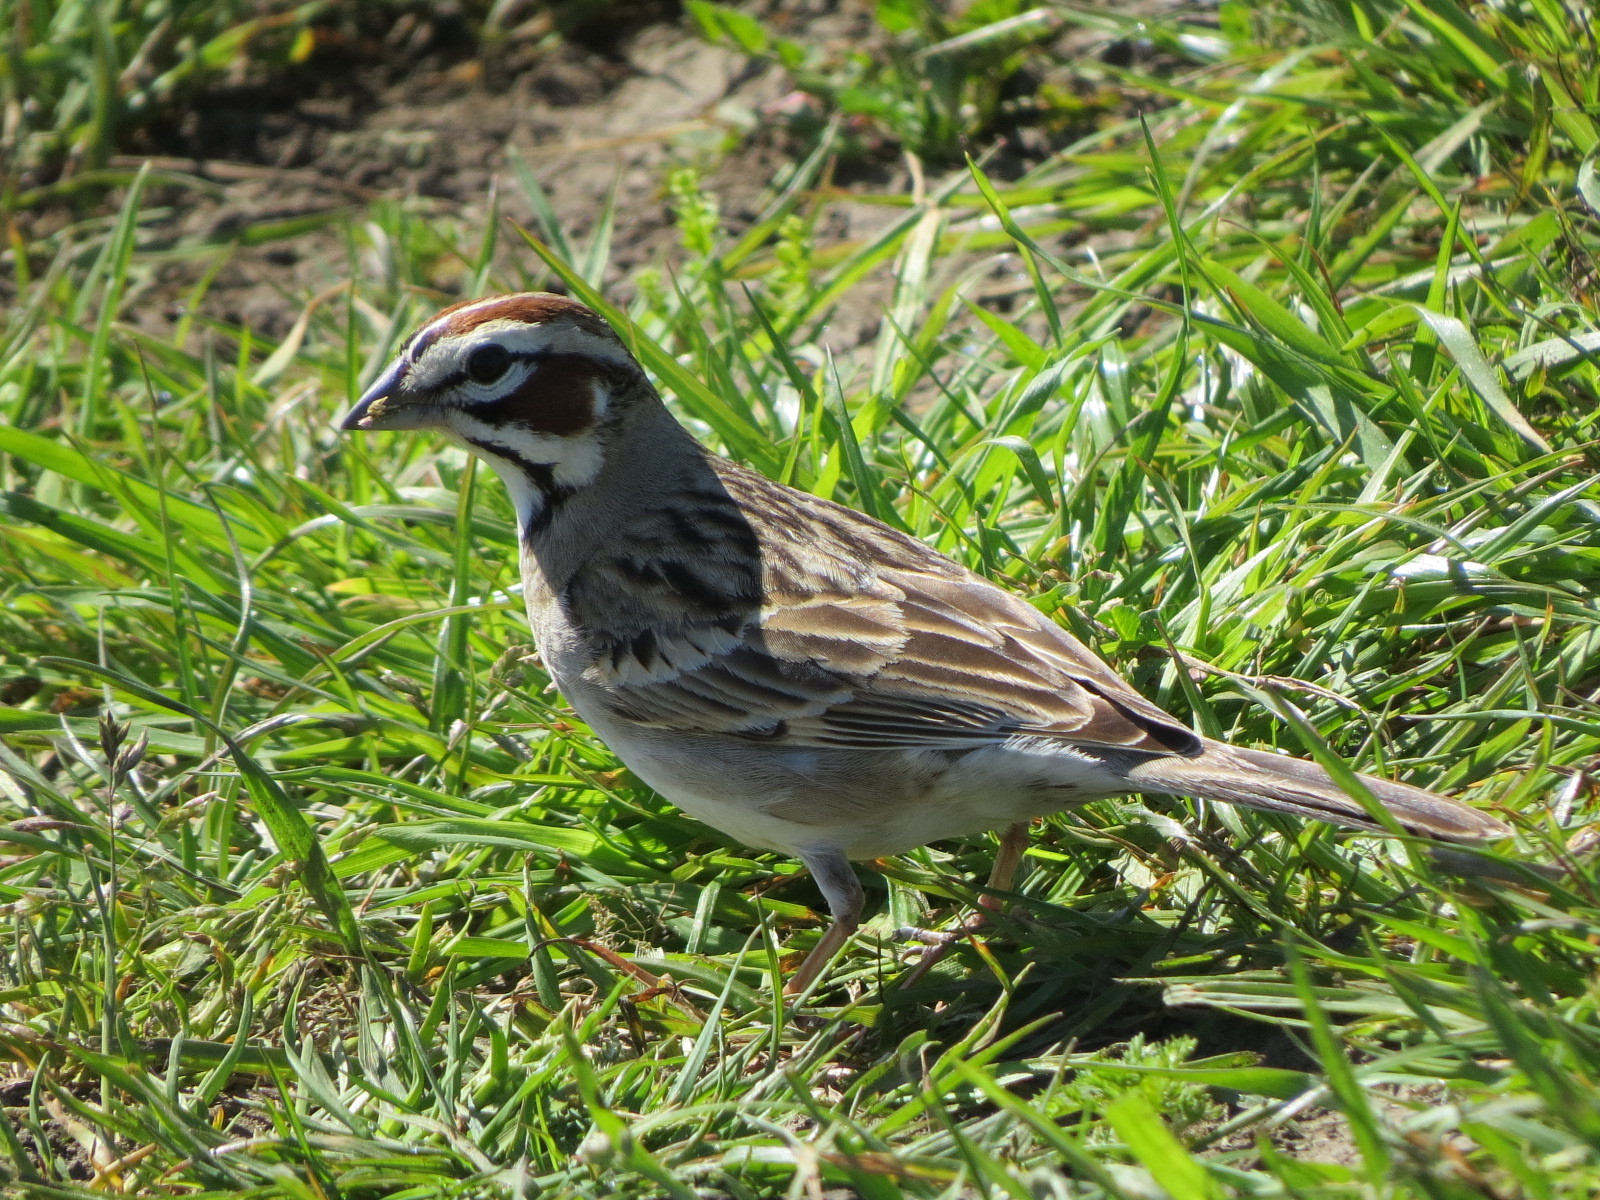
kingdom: Animalia
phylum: Chordata
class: Aves
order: Passeriformes
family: Passerellidae
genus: Chondestes
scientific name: Chondestes grammacus
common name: Lark sparrow
